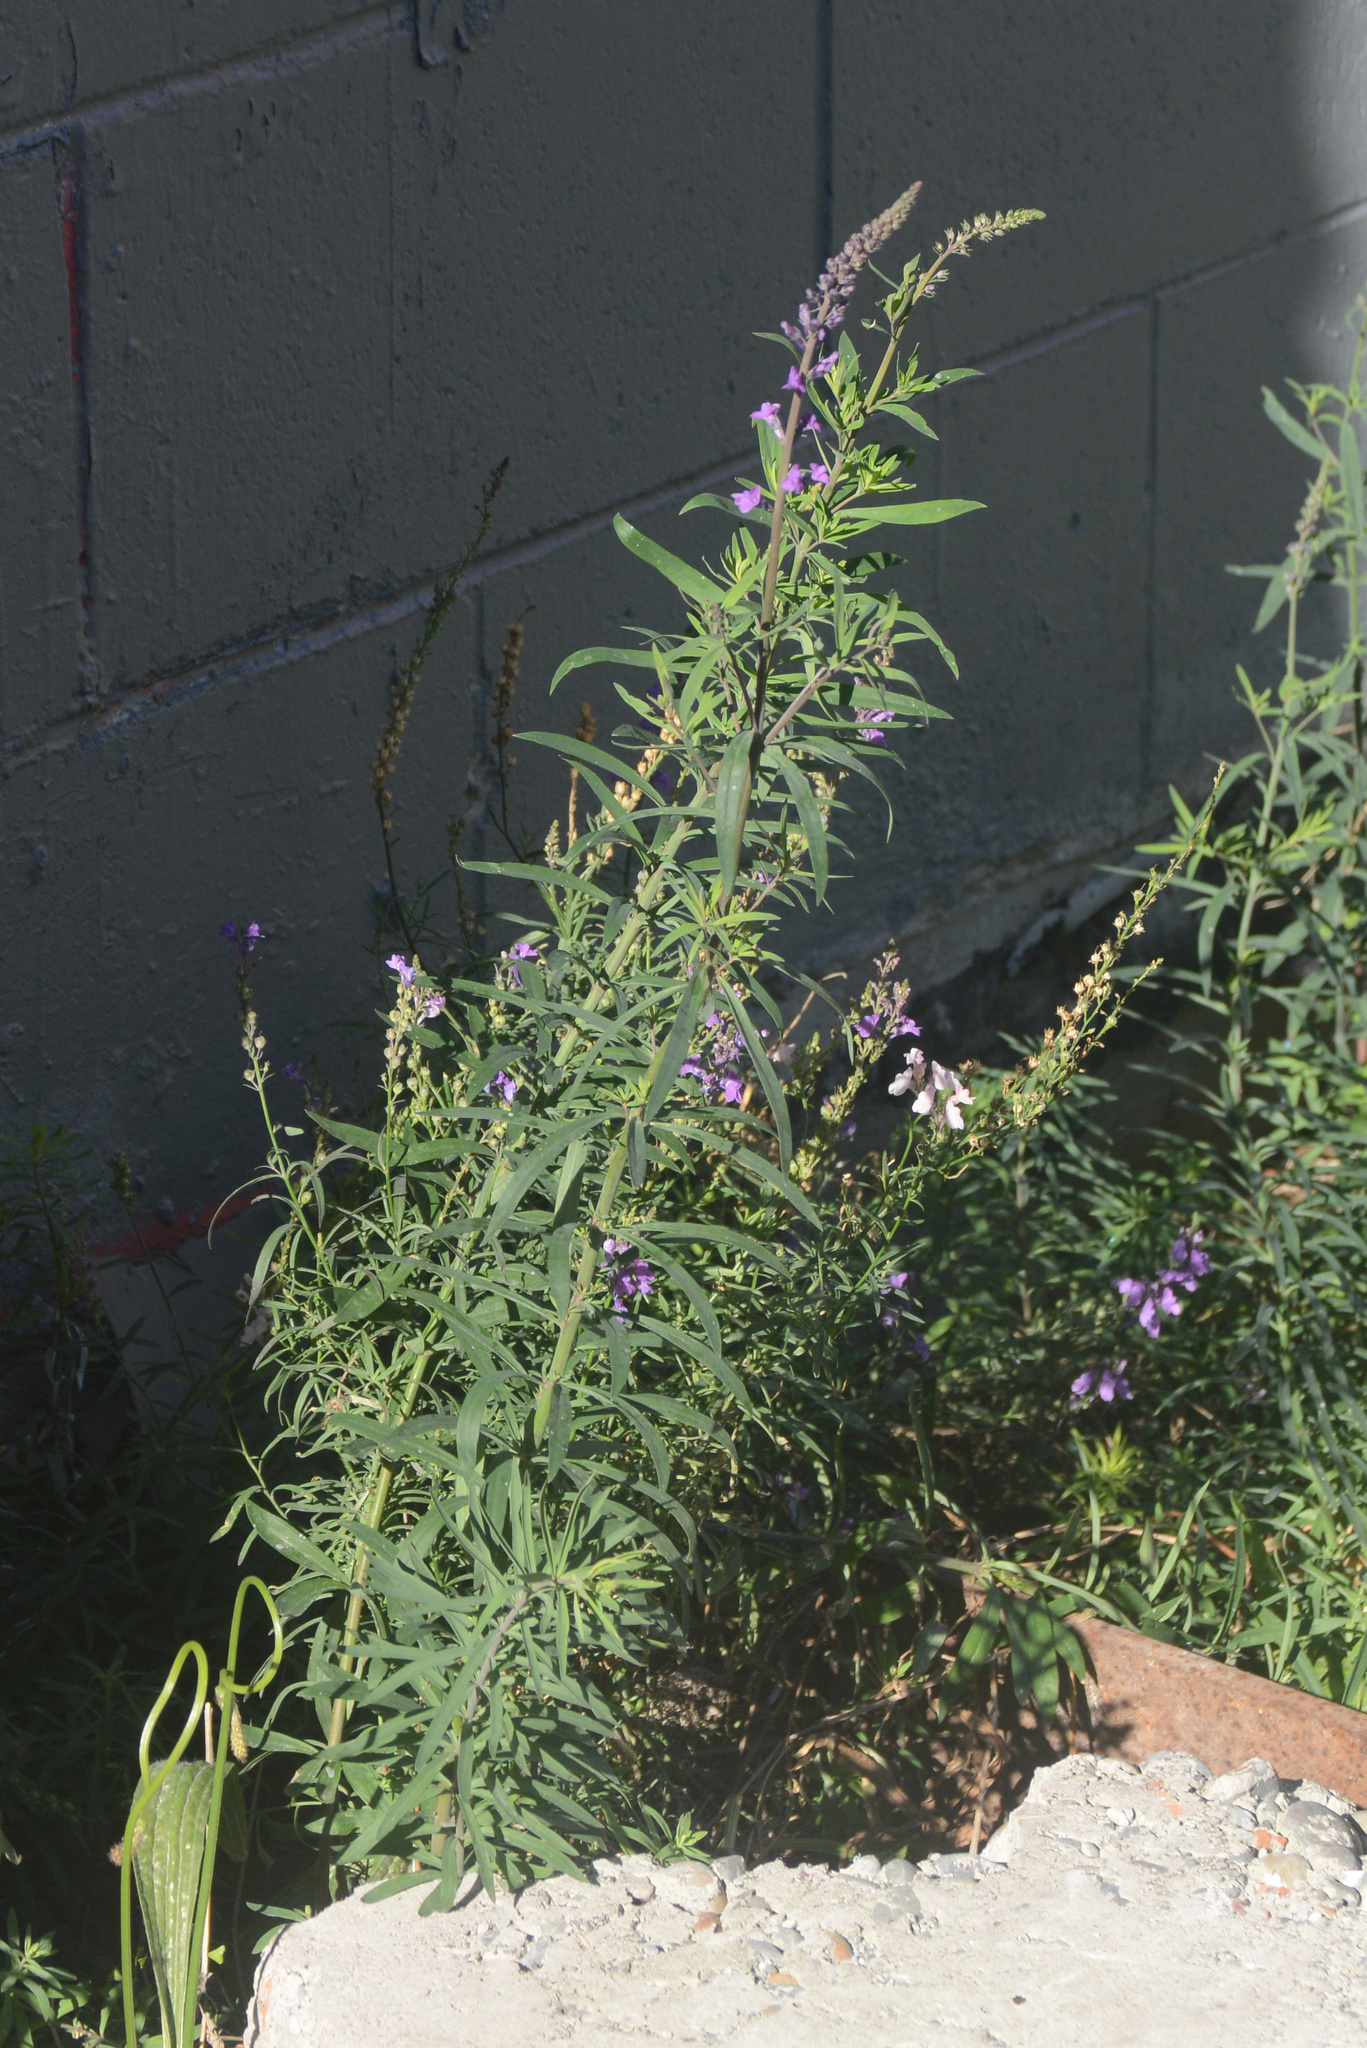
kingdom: Plantae
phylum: Tracheophyta
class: Magnoliopsida
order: Lamiales
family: Plantaginaceae
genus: Linaria
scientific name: Linaria purpurea
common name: Purple toadflax
